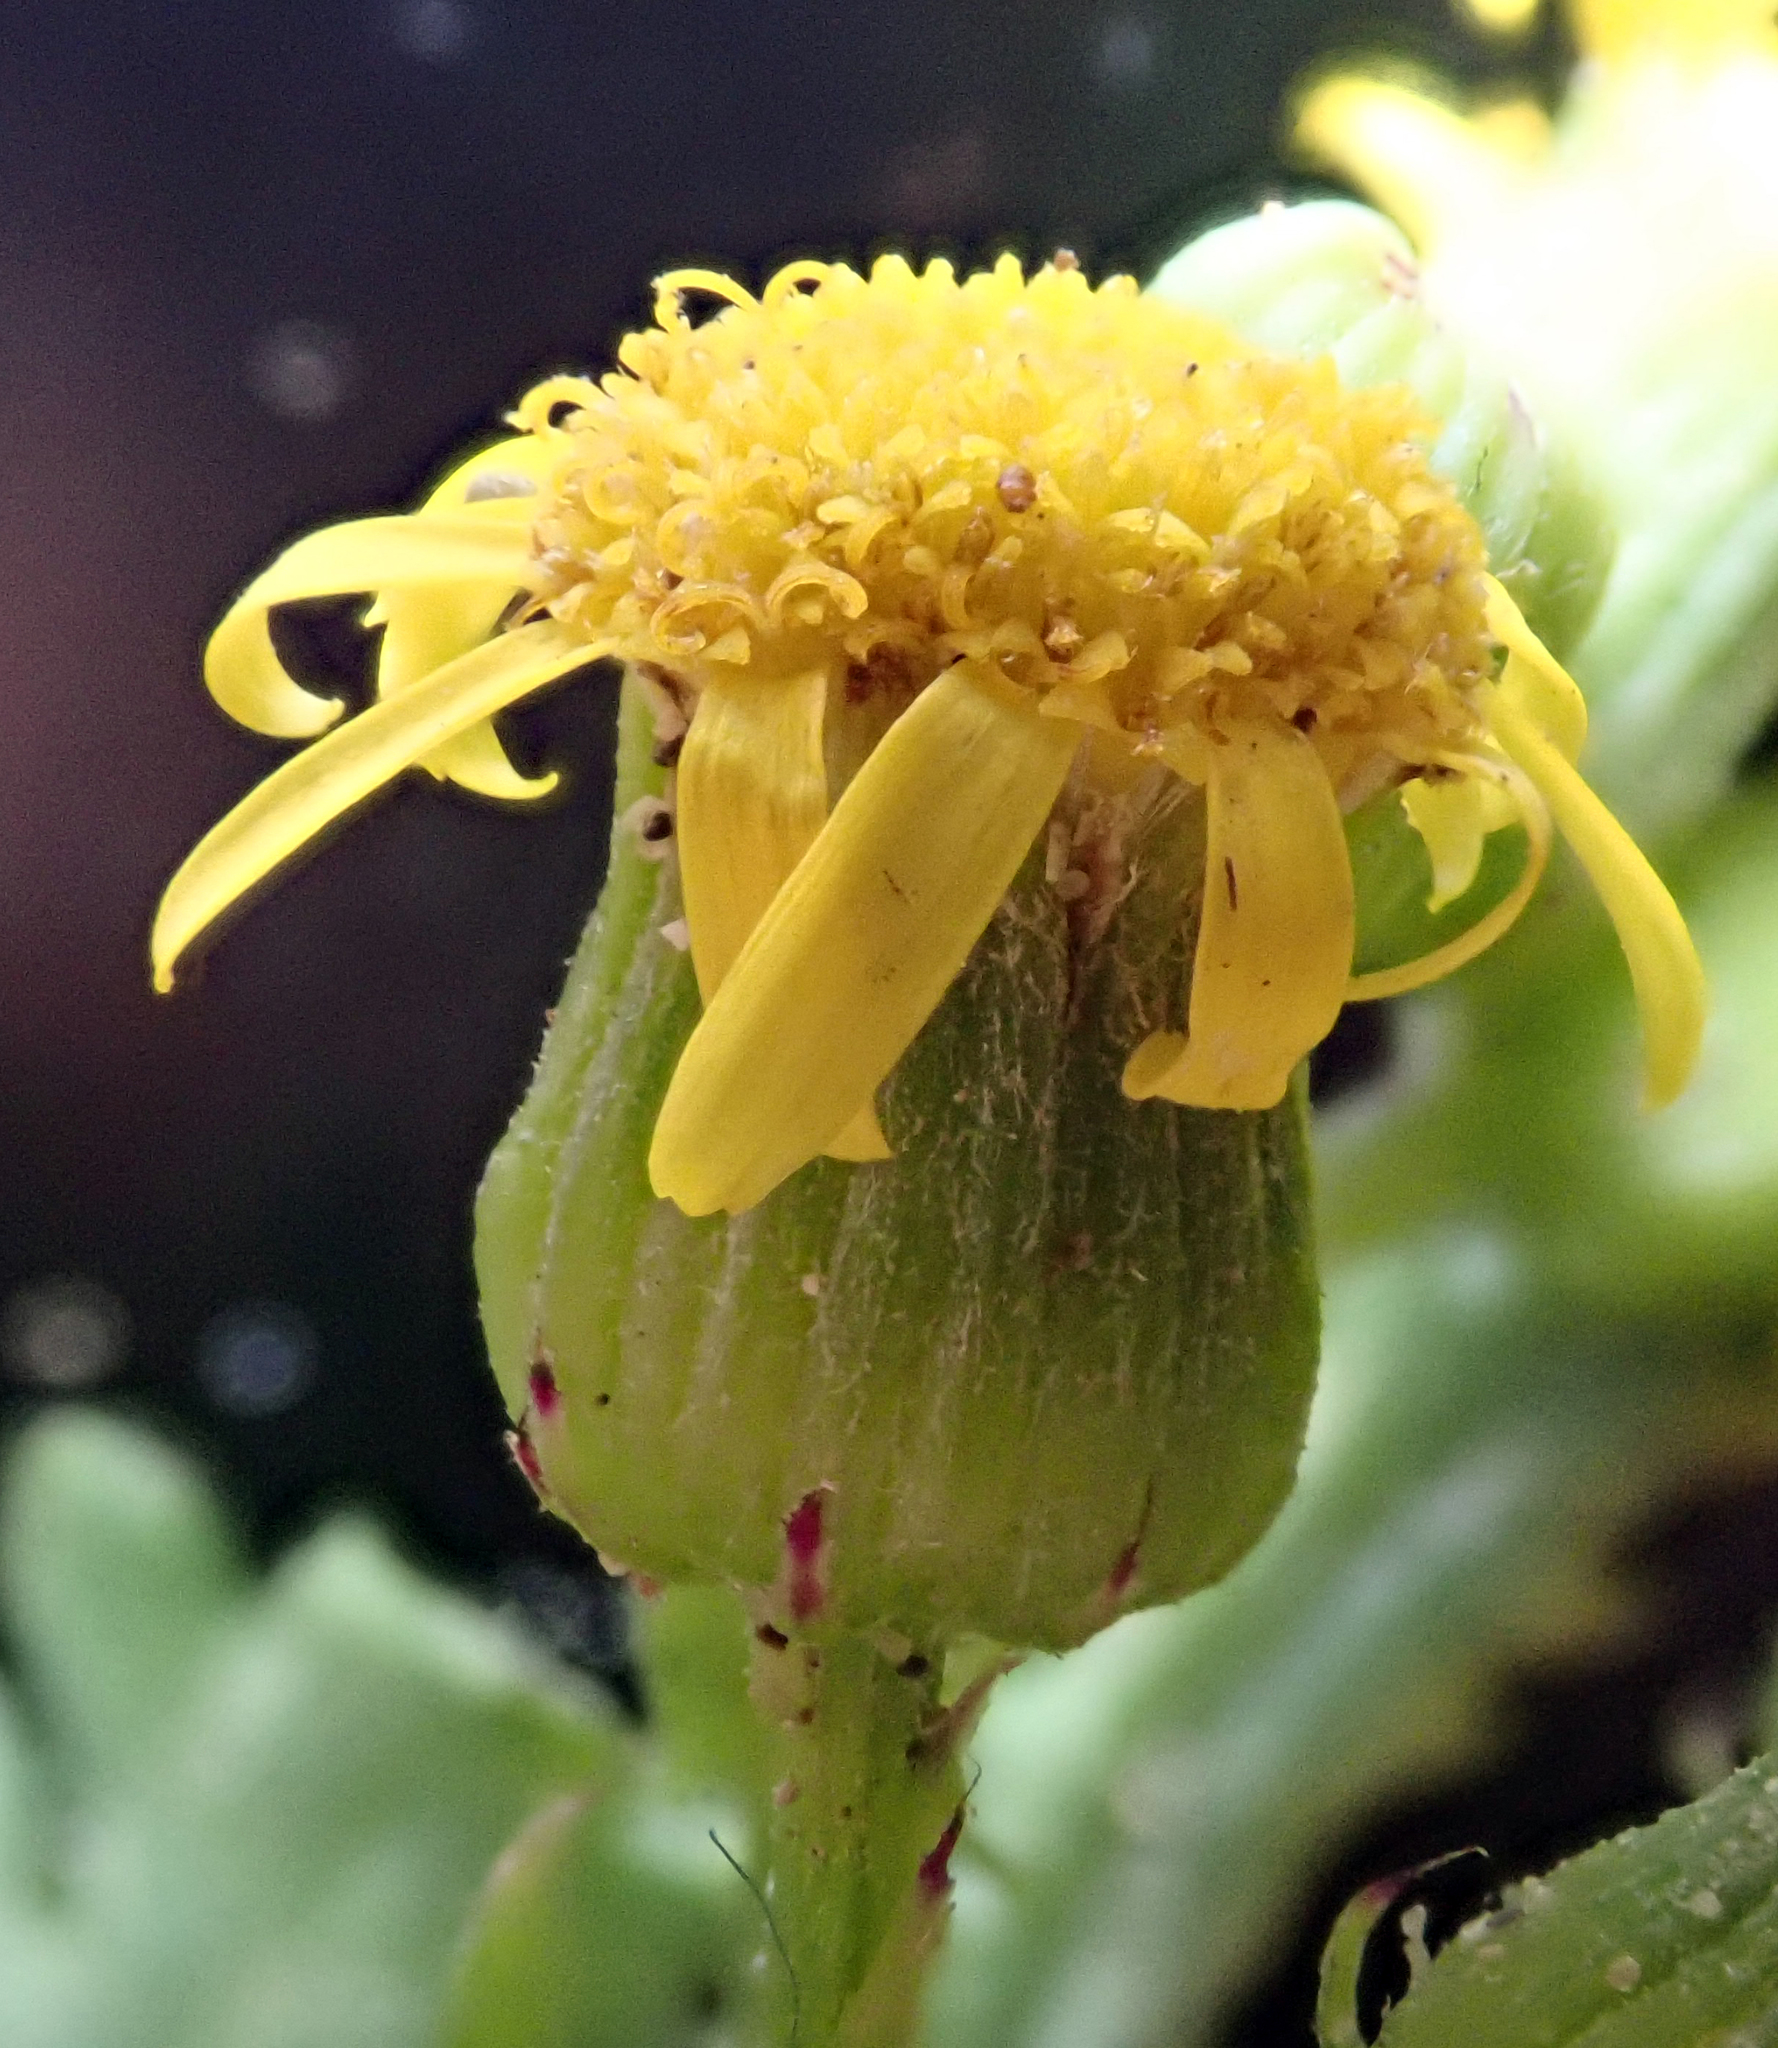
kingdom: Plantae
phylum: Tracheophyta
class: Magnoliopsida
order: Asterales
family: Asteraceae
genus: Senecio
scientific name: Senecio radiolatus
